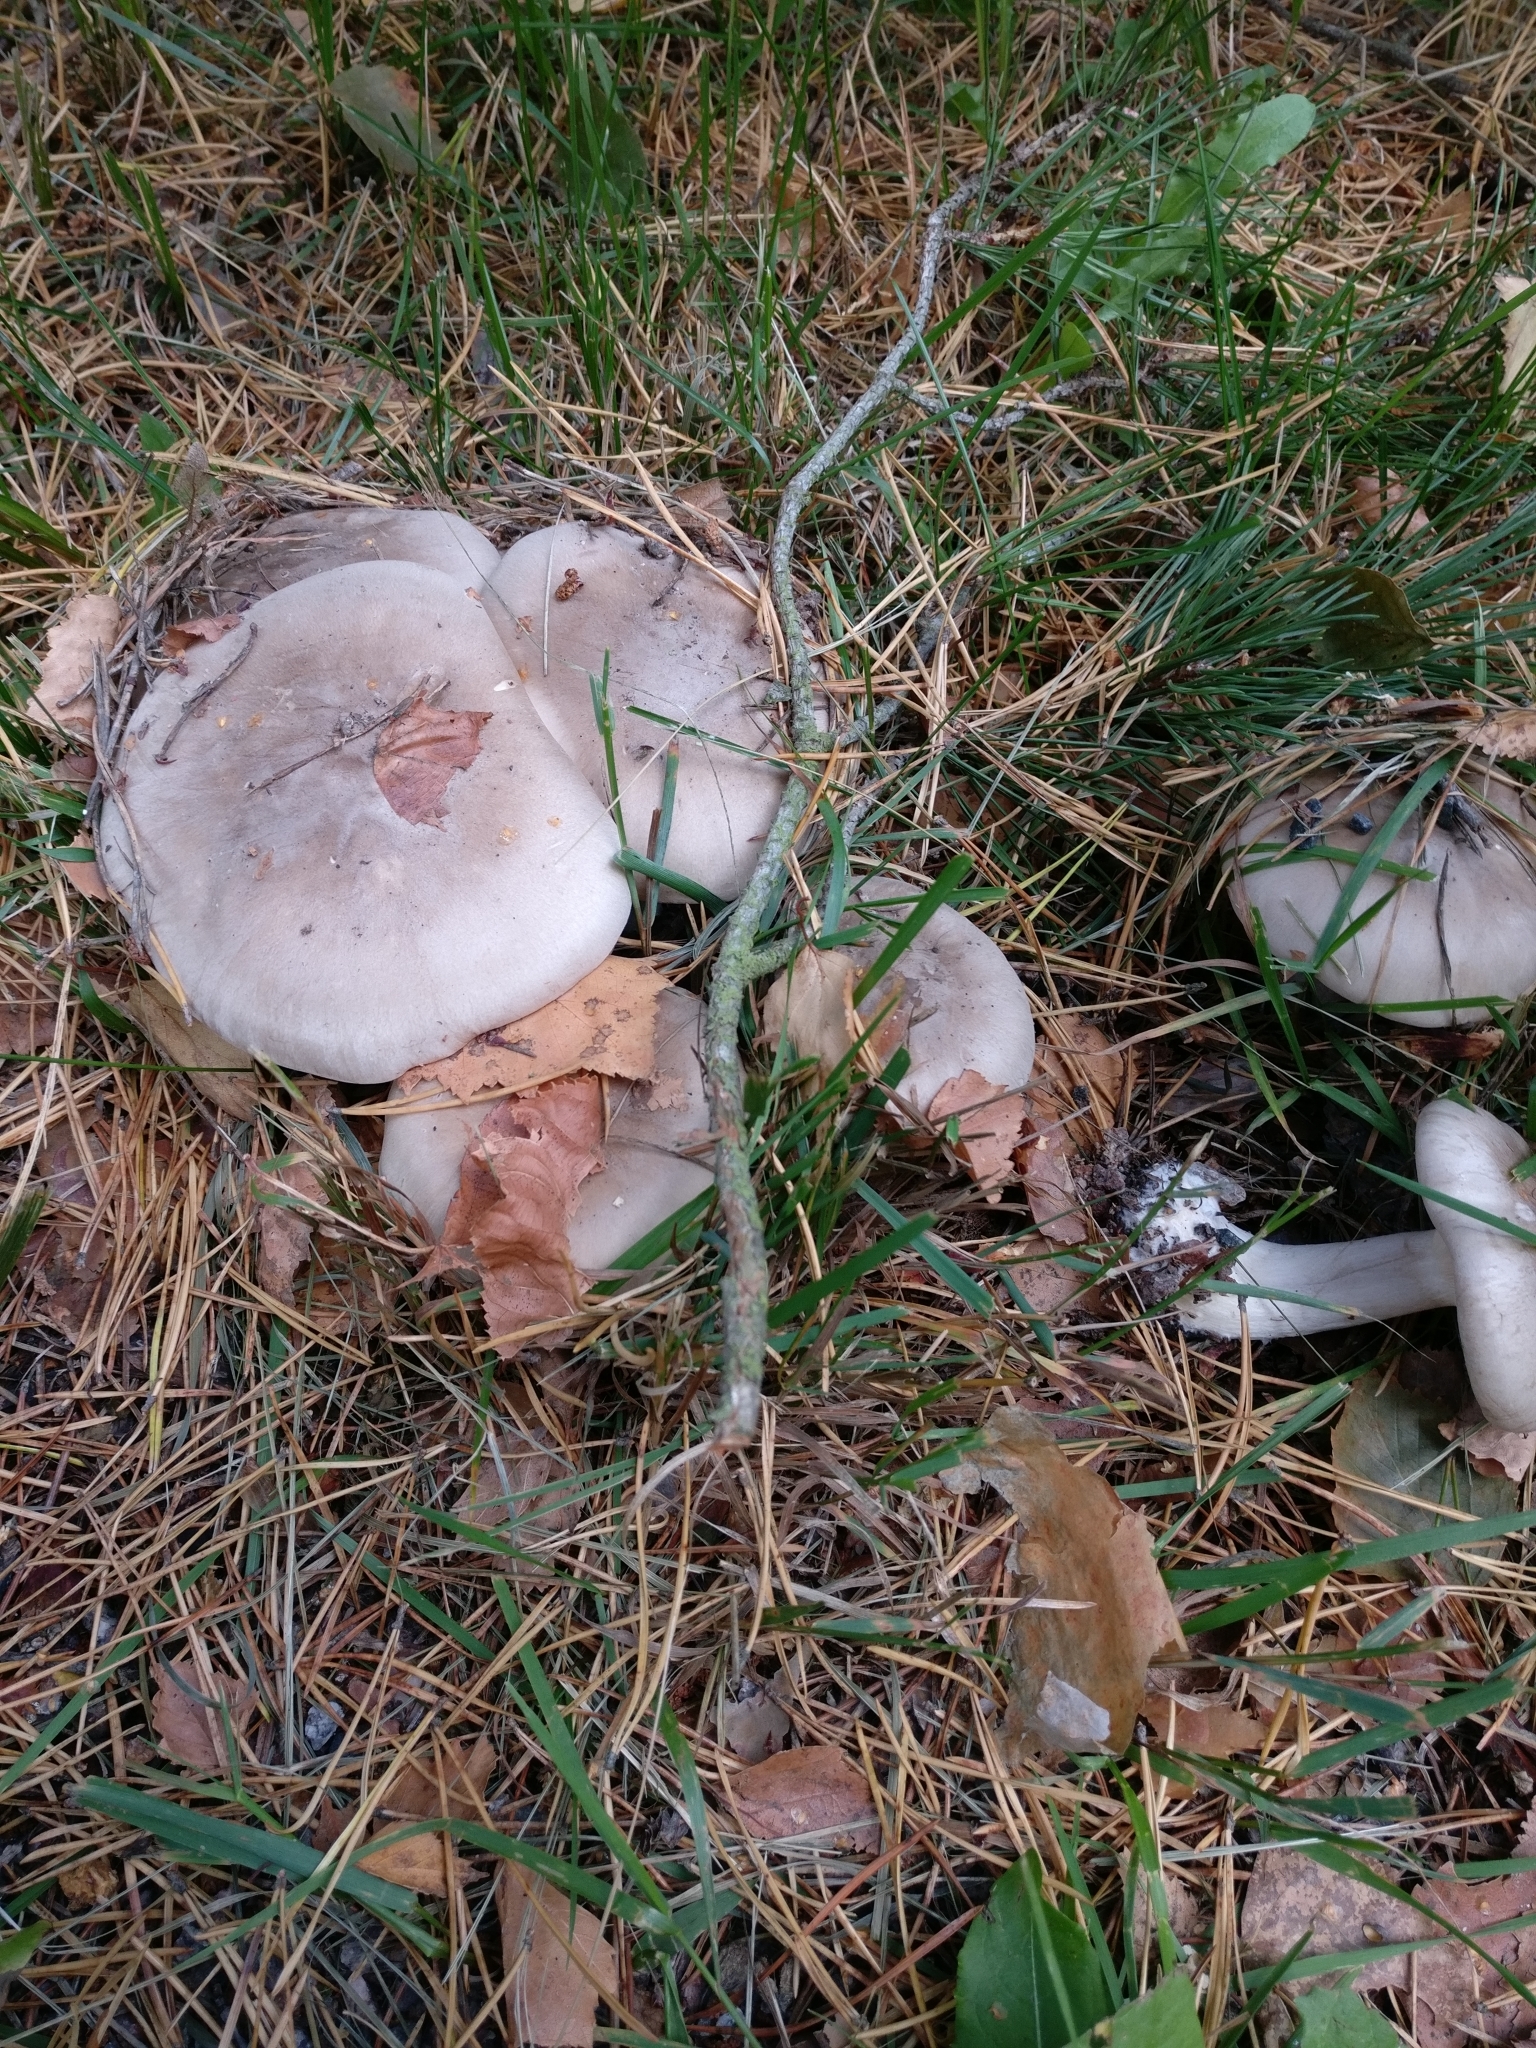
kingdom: Fungi
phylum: Basidiomycota
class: Agaricomycetes
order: Agaricales
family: Tricholomataceae
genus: Clitocybe
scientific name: Clitocybe nebularis
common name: Clouded agaric
